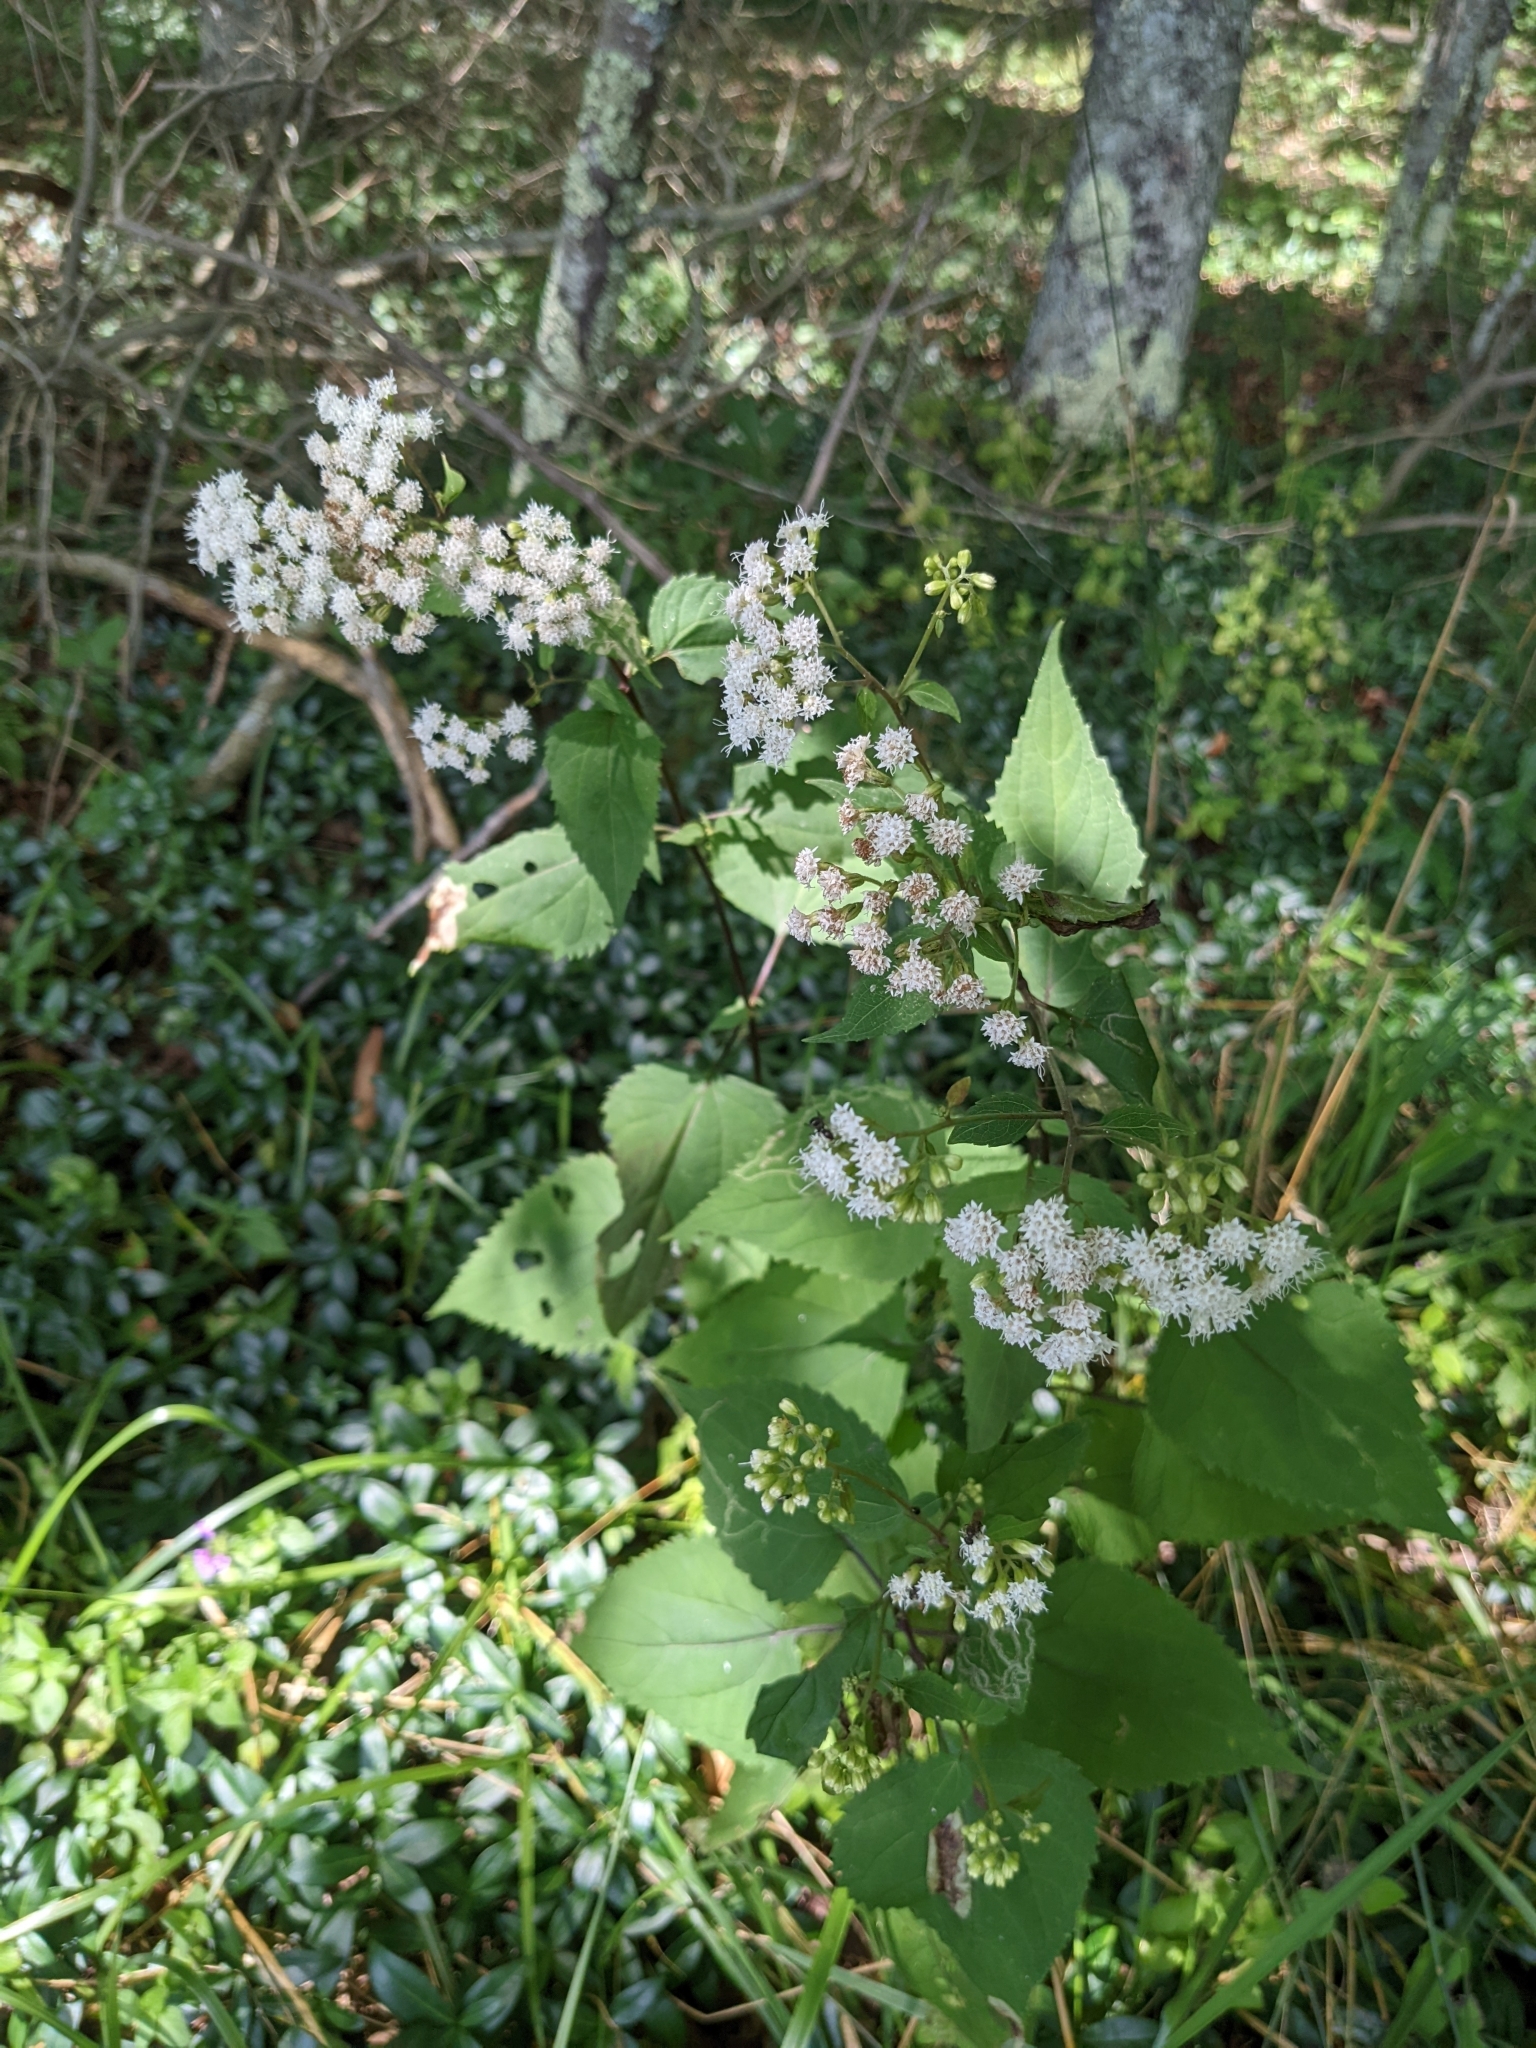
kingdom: Plantae
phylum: Tracheophyta
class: Magnoliopsida
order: Asterales
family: Asteraceae
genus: Ageratina
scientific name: Ageratina altissima
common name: White snakeroot
